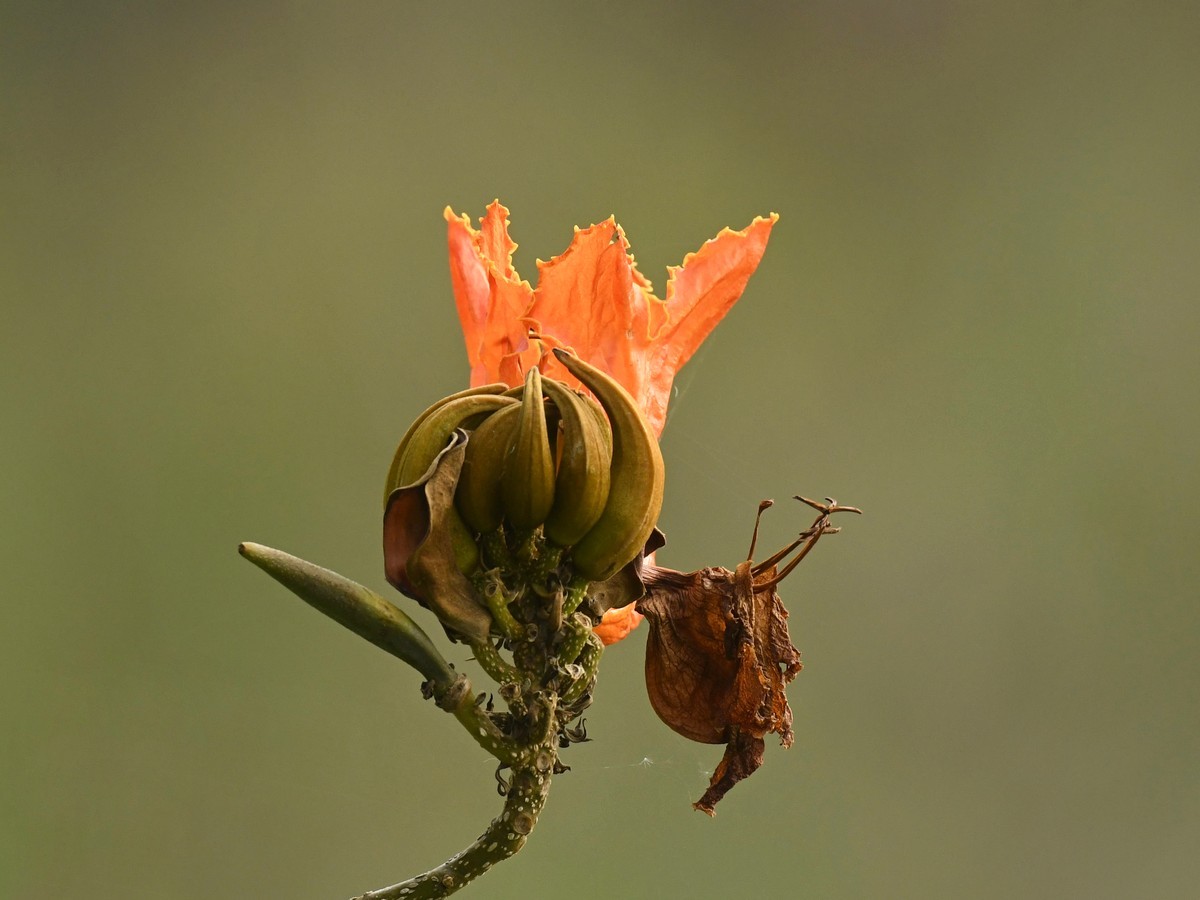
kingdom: Plantae
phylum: Tracheophyta
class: Magnoliopsida
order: Lamiales
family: Bignoniaceae
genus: Spathodea
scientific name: Spathodea campanulata
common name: African tuliptree
